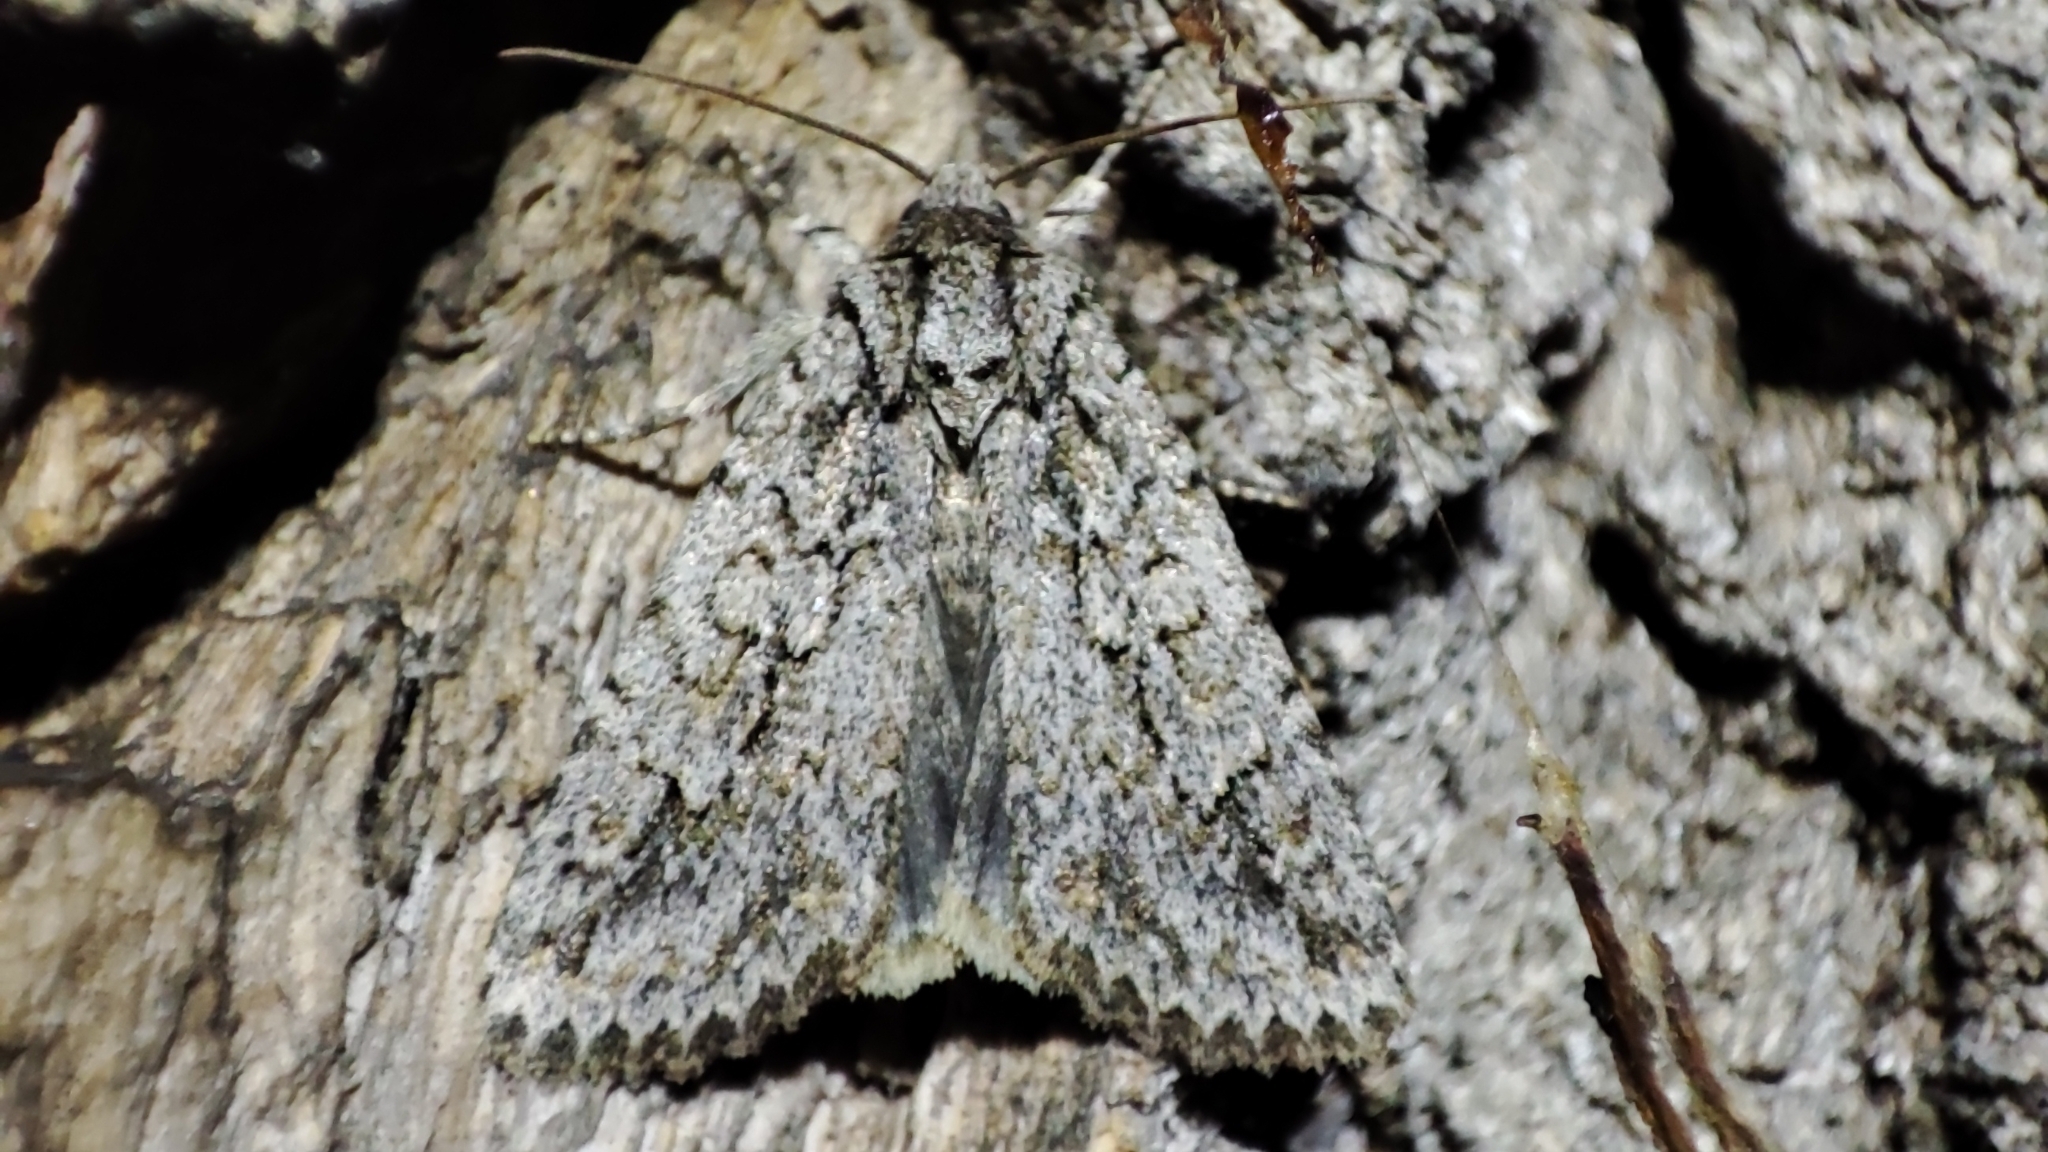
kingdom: Animalia
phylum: Arthropoda
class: Insecta
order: Lepidoptera
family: Noctuidae
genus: Phidrimana
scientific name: Phidrimana amurensis
